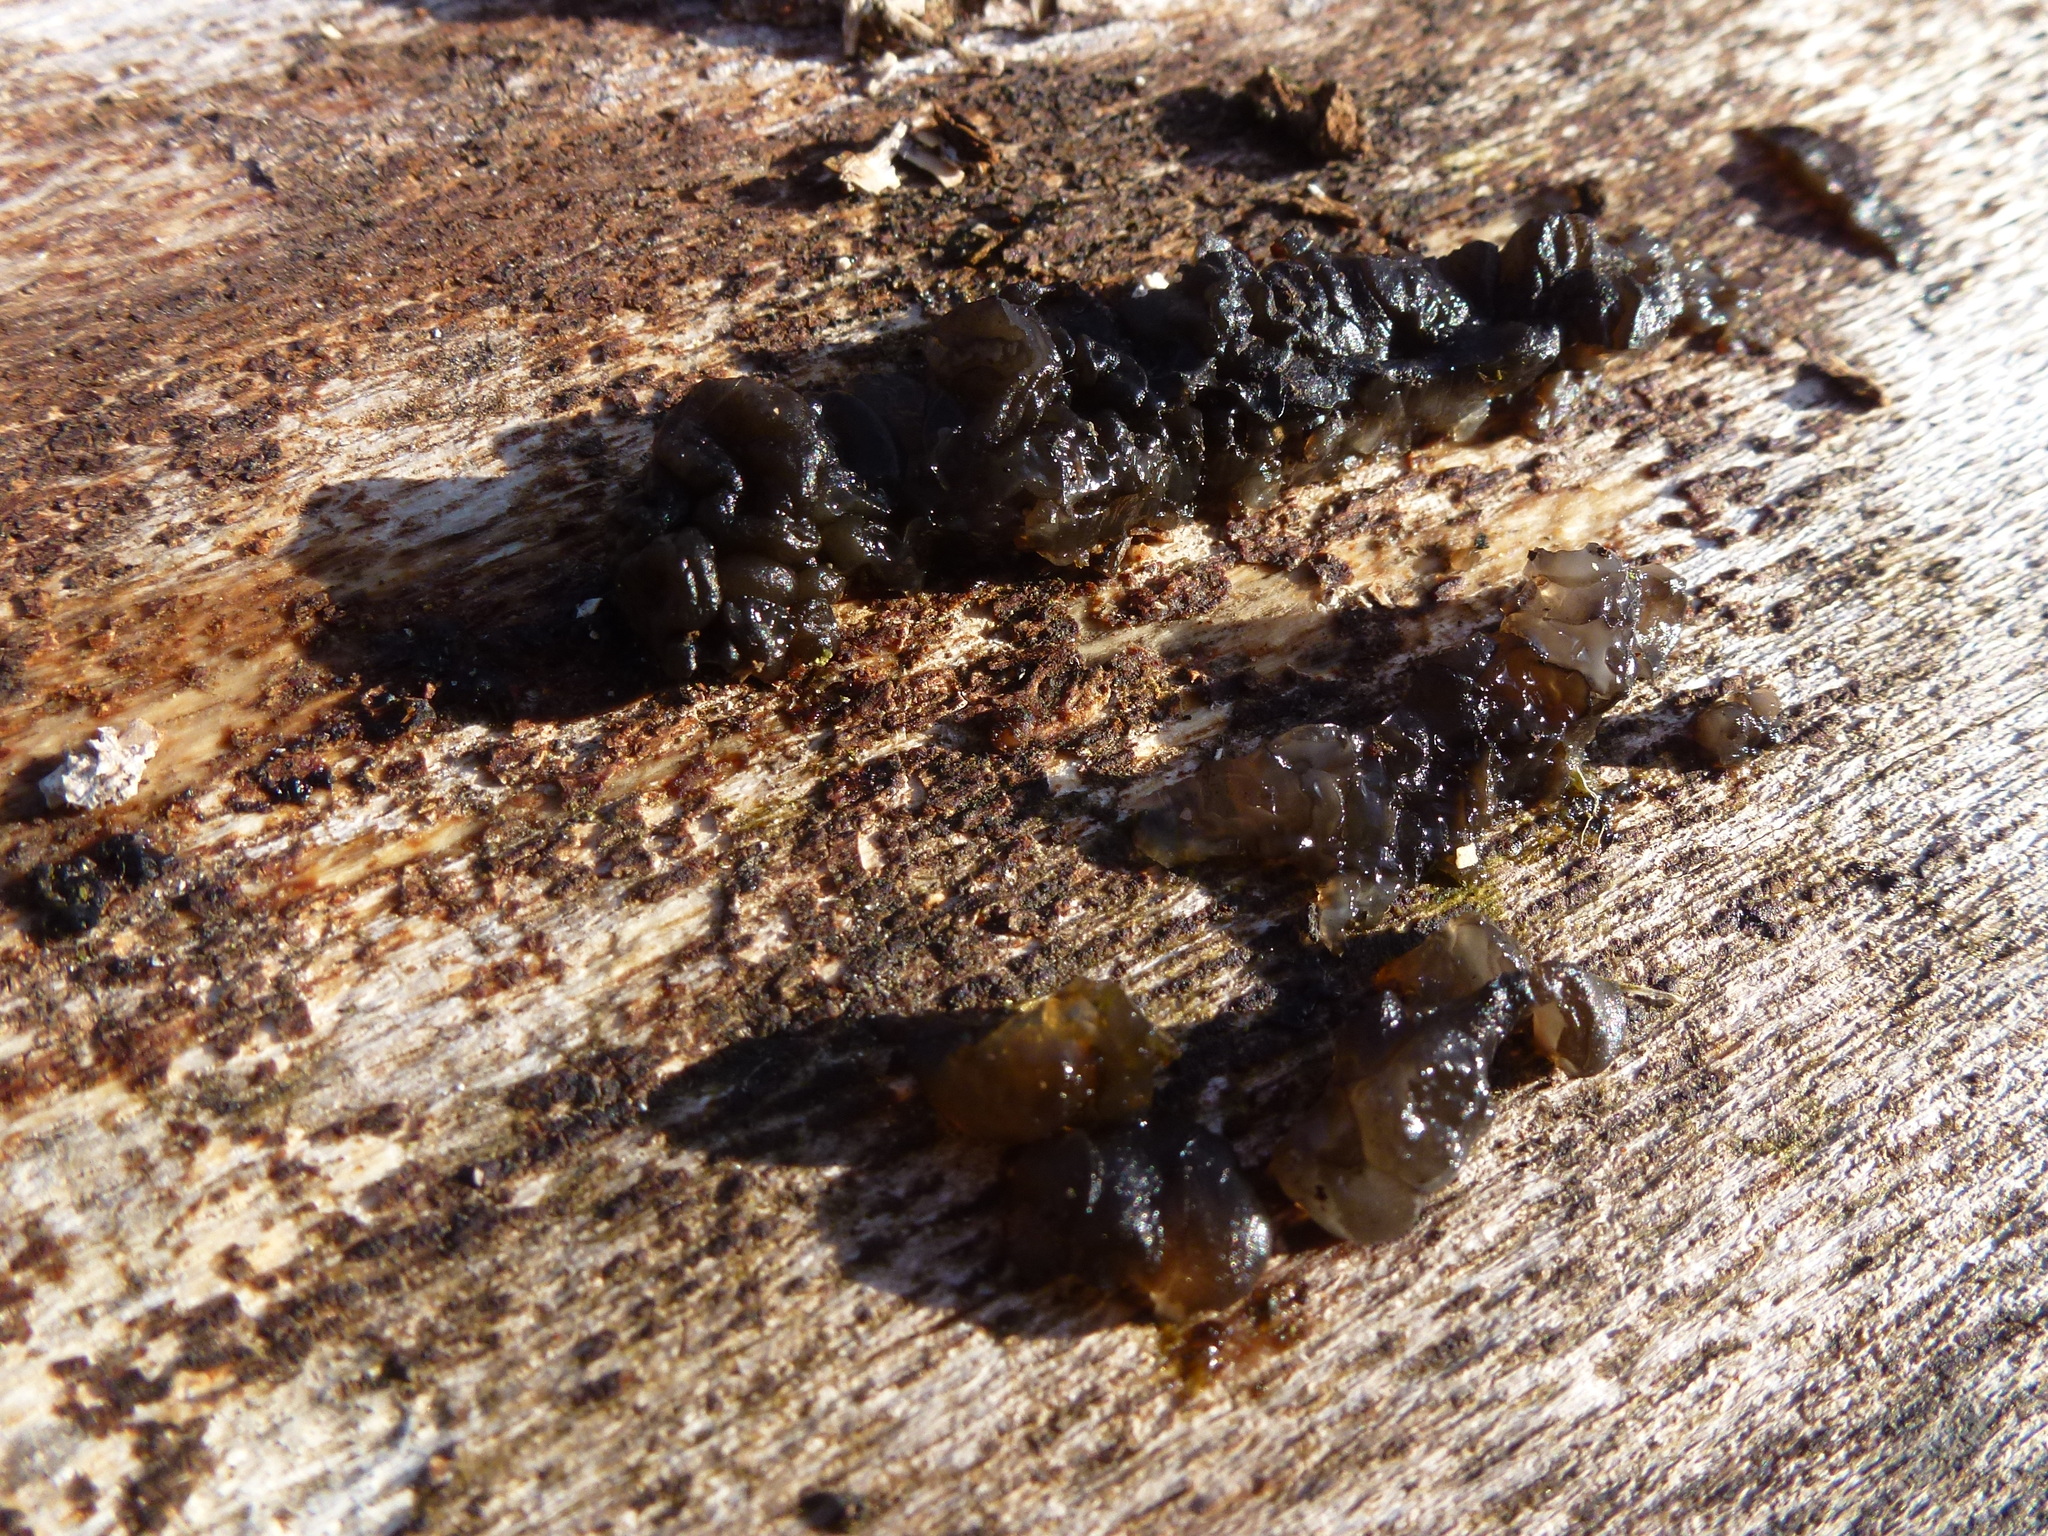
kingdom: Fungi
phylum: Basidiomycota
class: Agaricomycetes
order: Auriculariales
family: Auriculariaceae
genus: Exidia
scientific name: Exidia glandulosa
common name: Witches' butter
